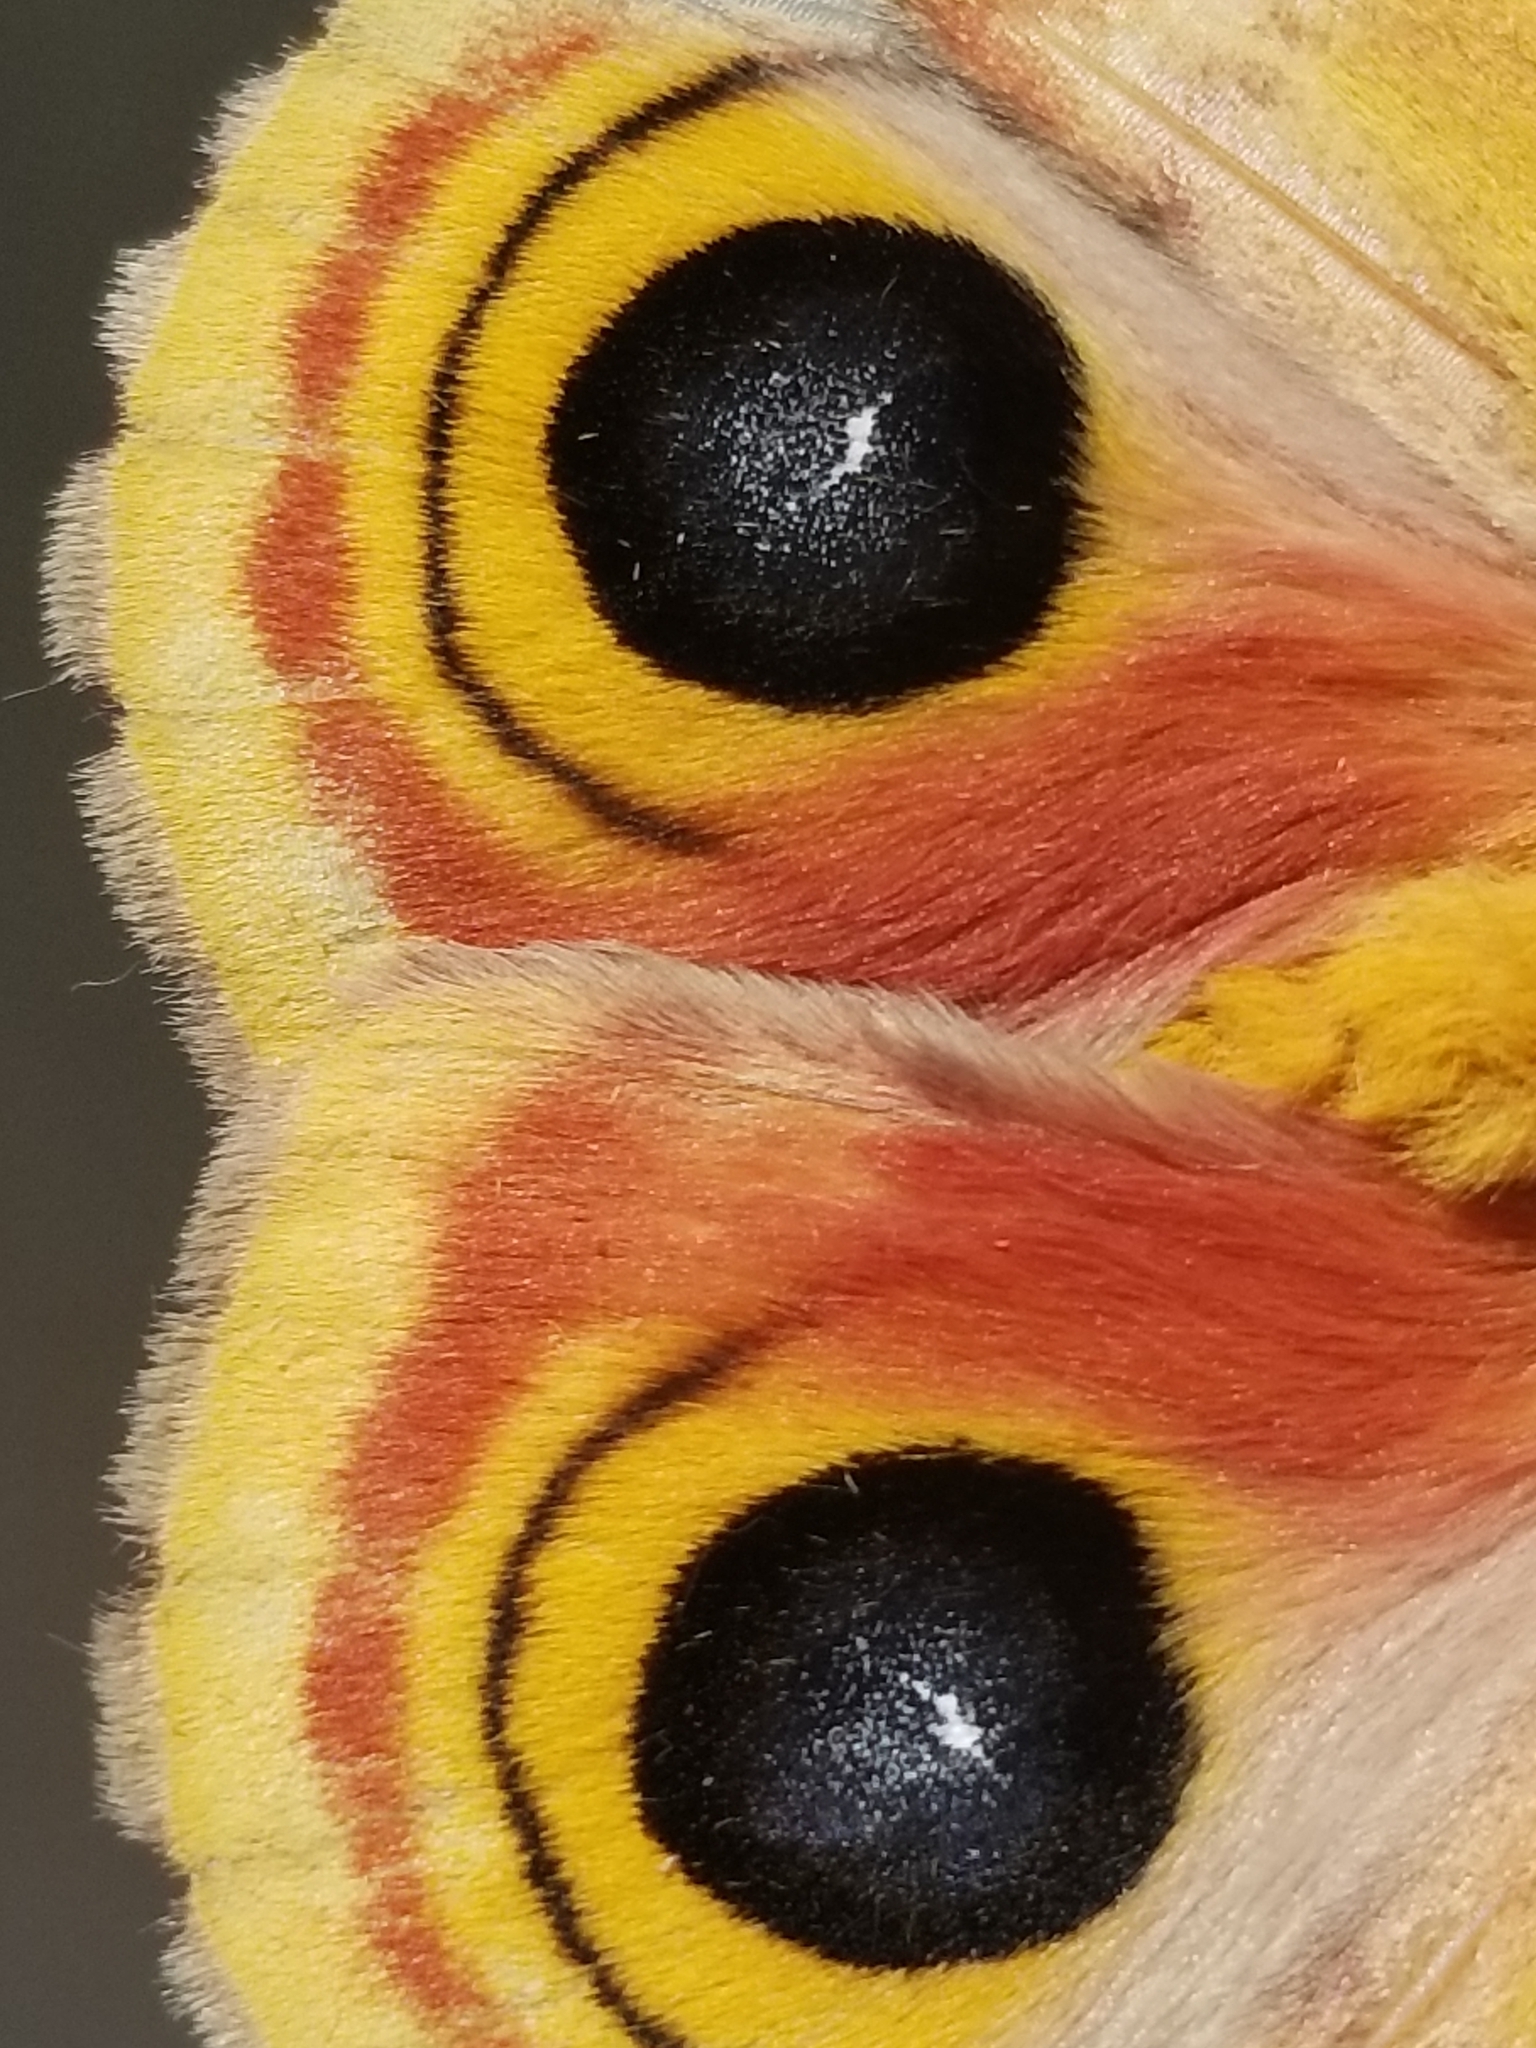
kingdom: Animalia
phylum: Arthropoda
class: Insecta
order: Lepidoptera
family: Saturniidae
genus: Automeris
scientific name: Automeris io
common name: Io moth
